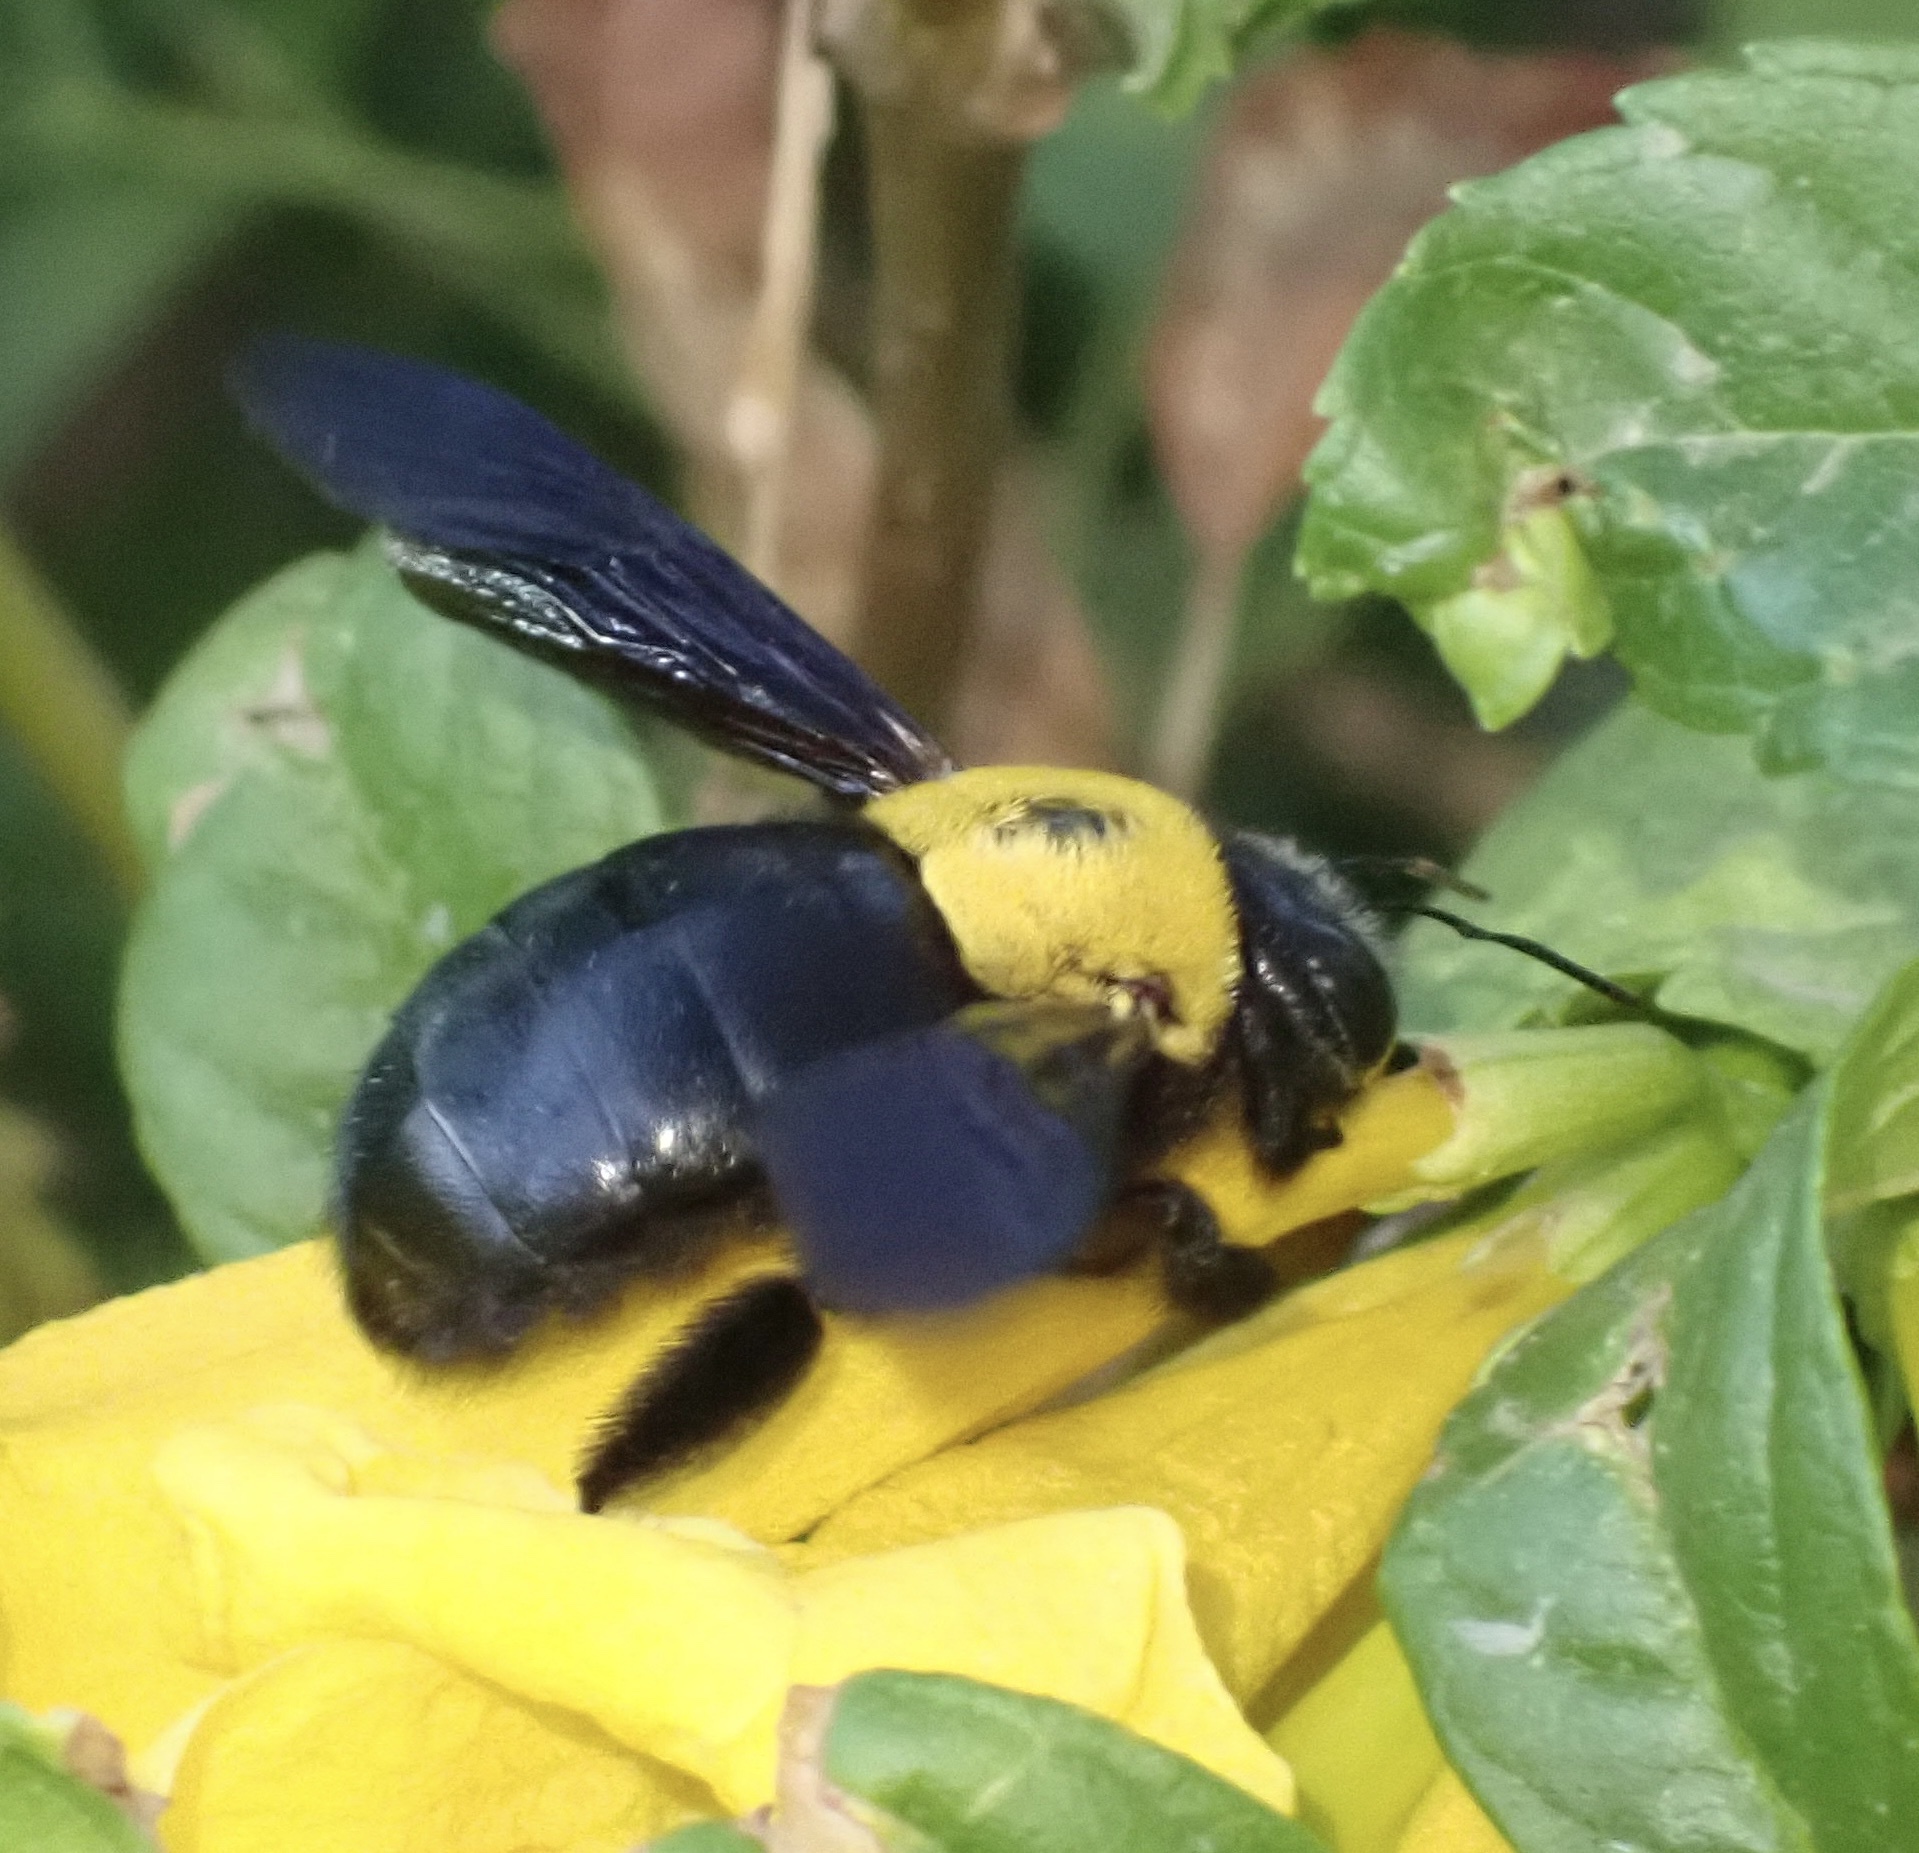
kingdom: Animalia
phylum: Arthropoda
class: Insecta
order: Hymenoptera
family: Apidae
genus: Xylocopa
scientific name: Xylocopa pubescens
